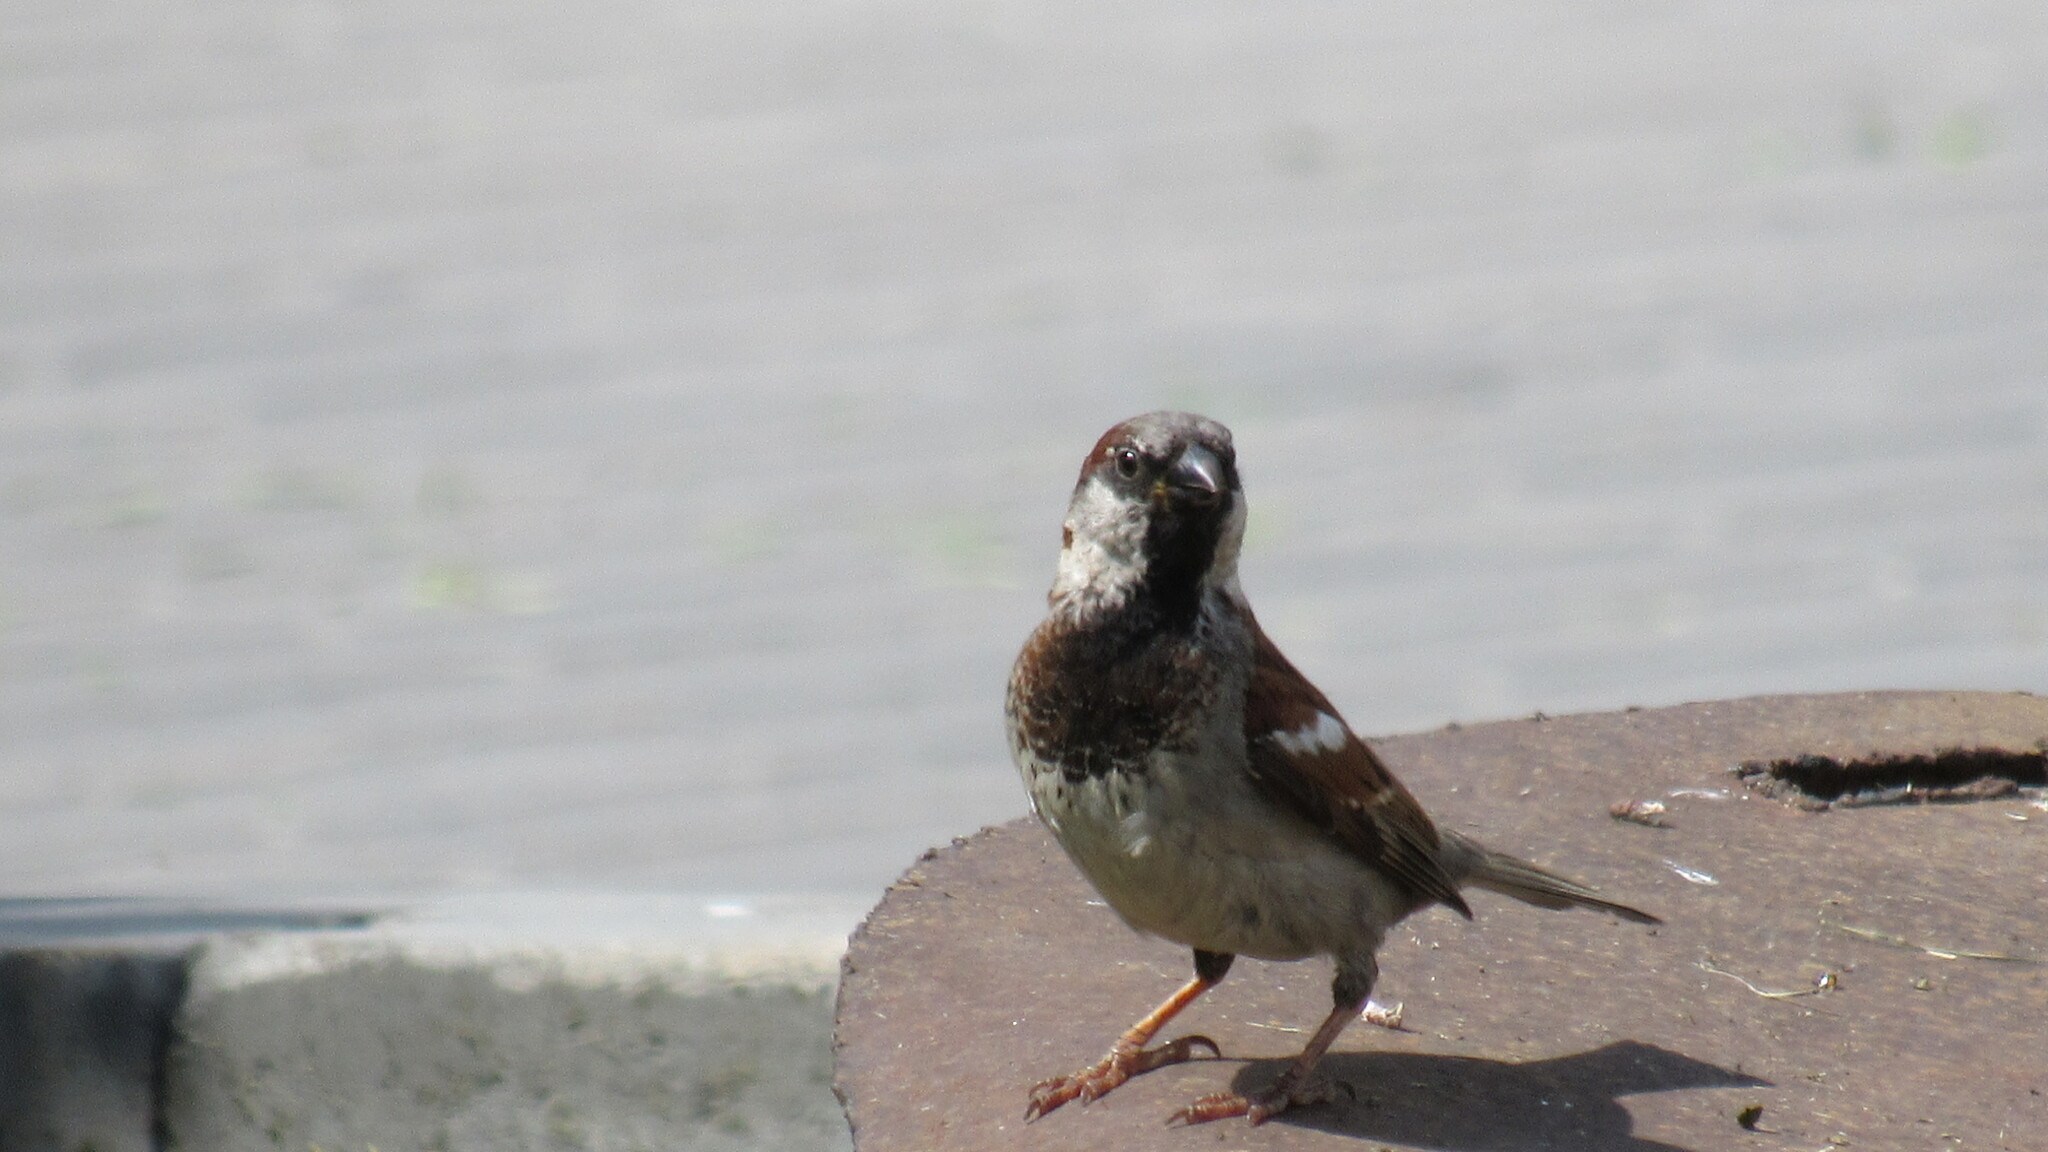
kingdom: Animalia
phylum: Chordata
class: Aves
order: Passeriformes
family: Passeridae
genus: Passer
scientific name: Passer domesticus
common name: House sparrow
